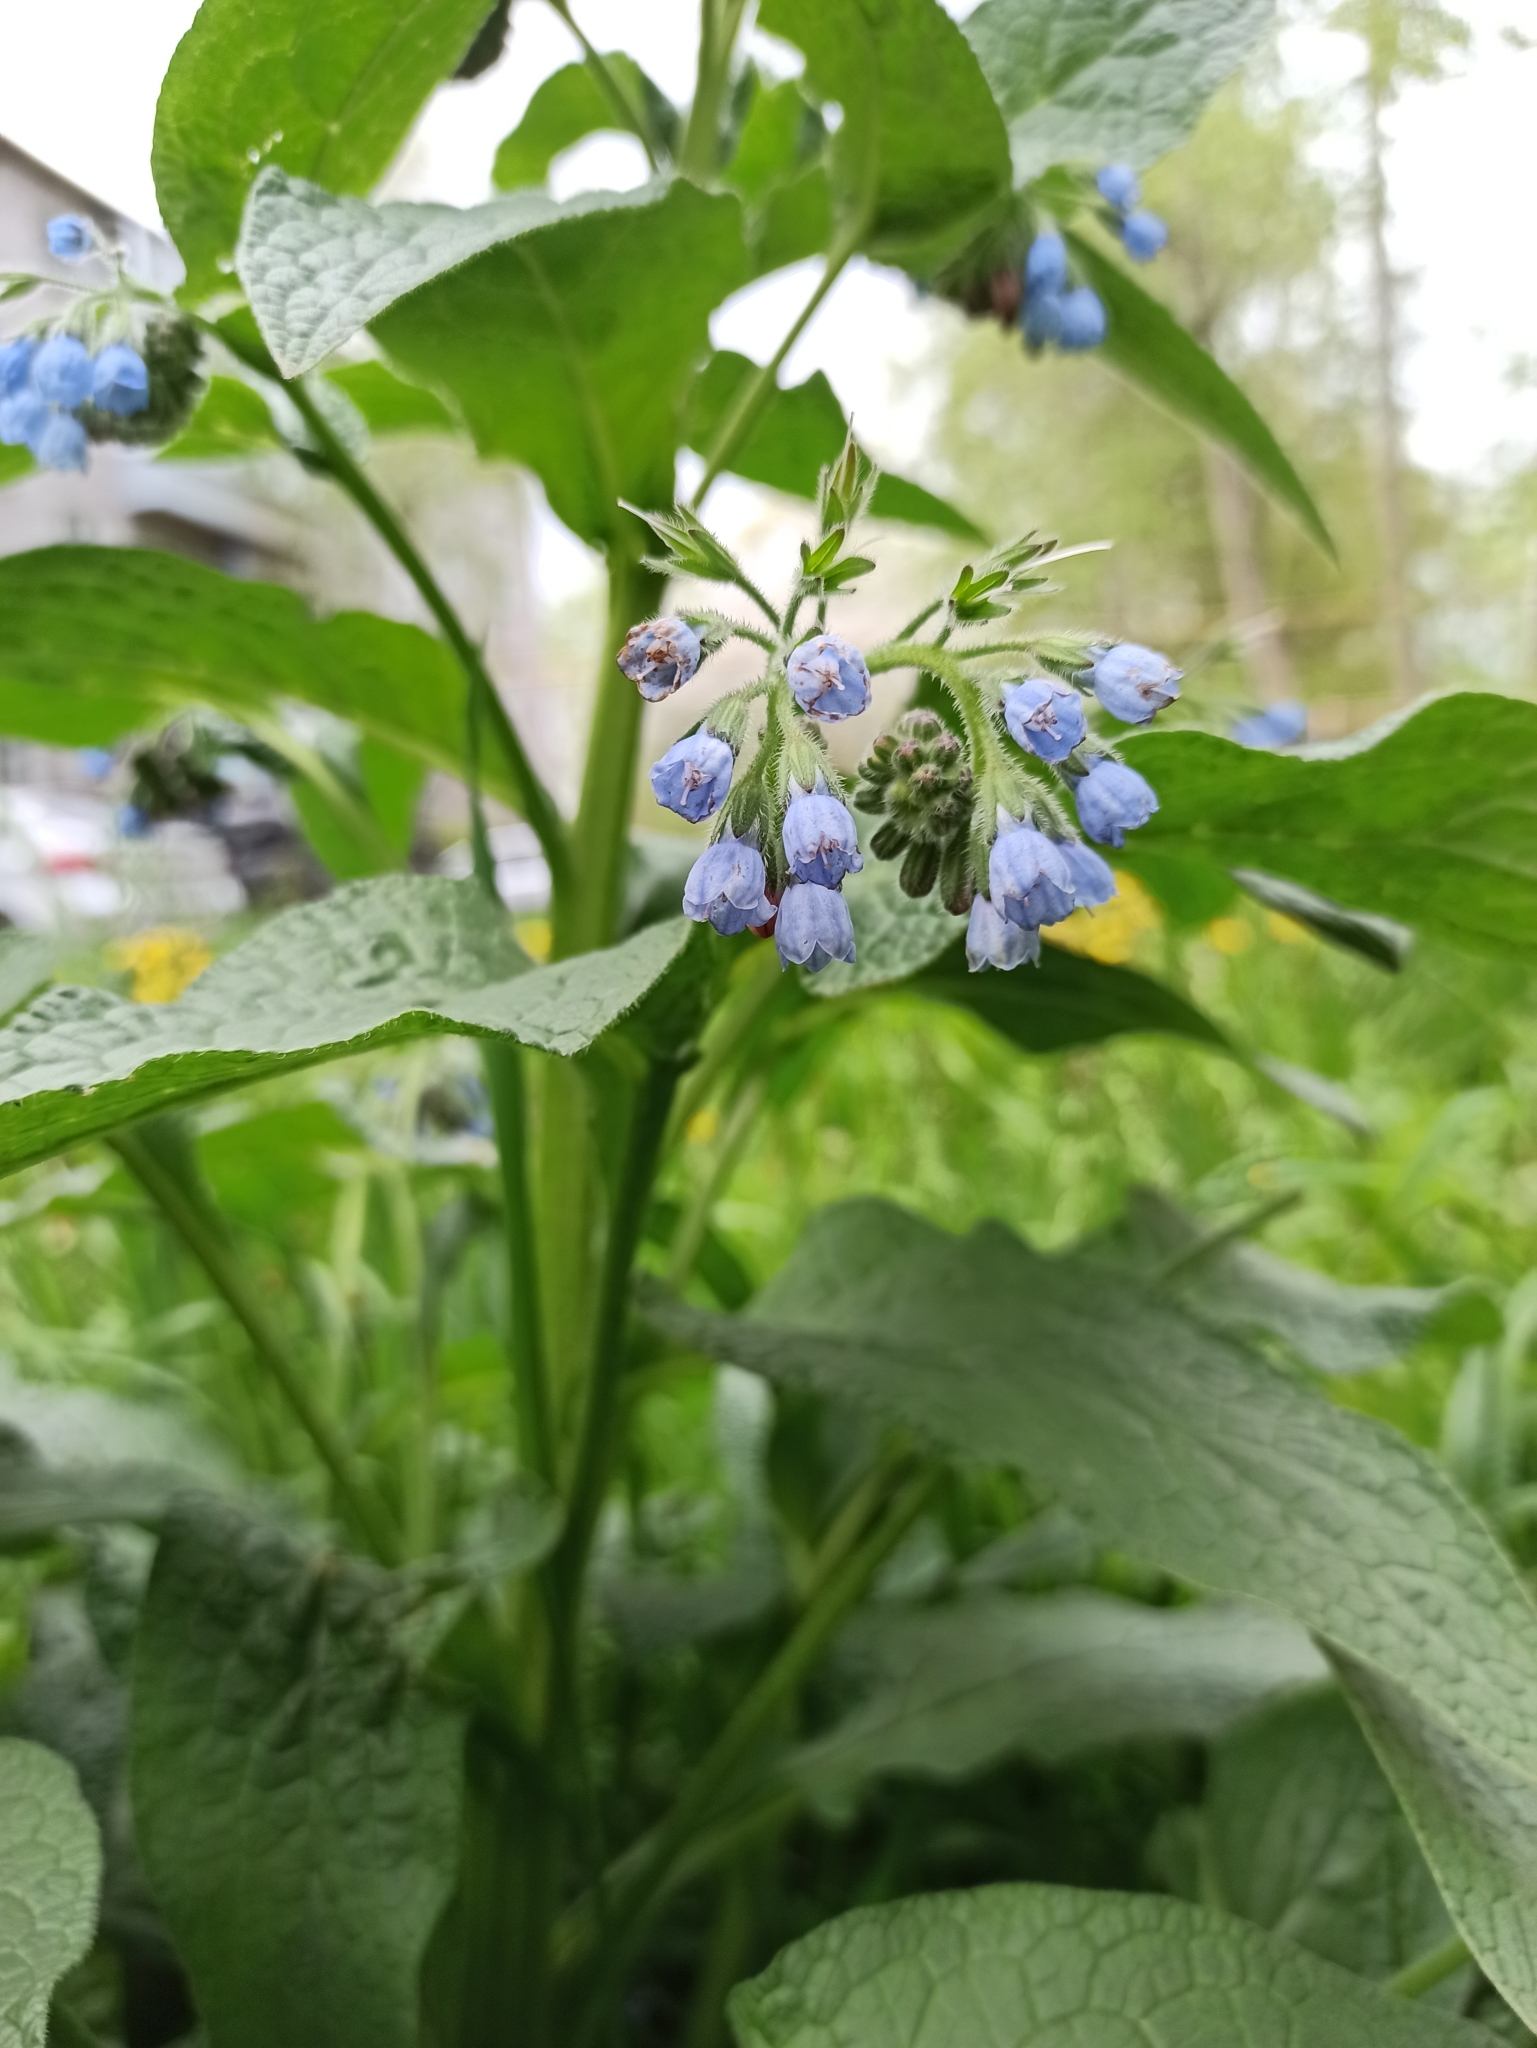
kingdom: Plantae
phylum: Tracheophyta
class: Magnoliopsida
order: Boraginales
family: Boraginaceae
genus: Symphytum
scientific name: Symphytum caucasicum
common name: Caucasian comfrey
